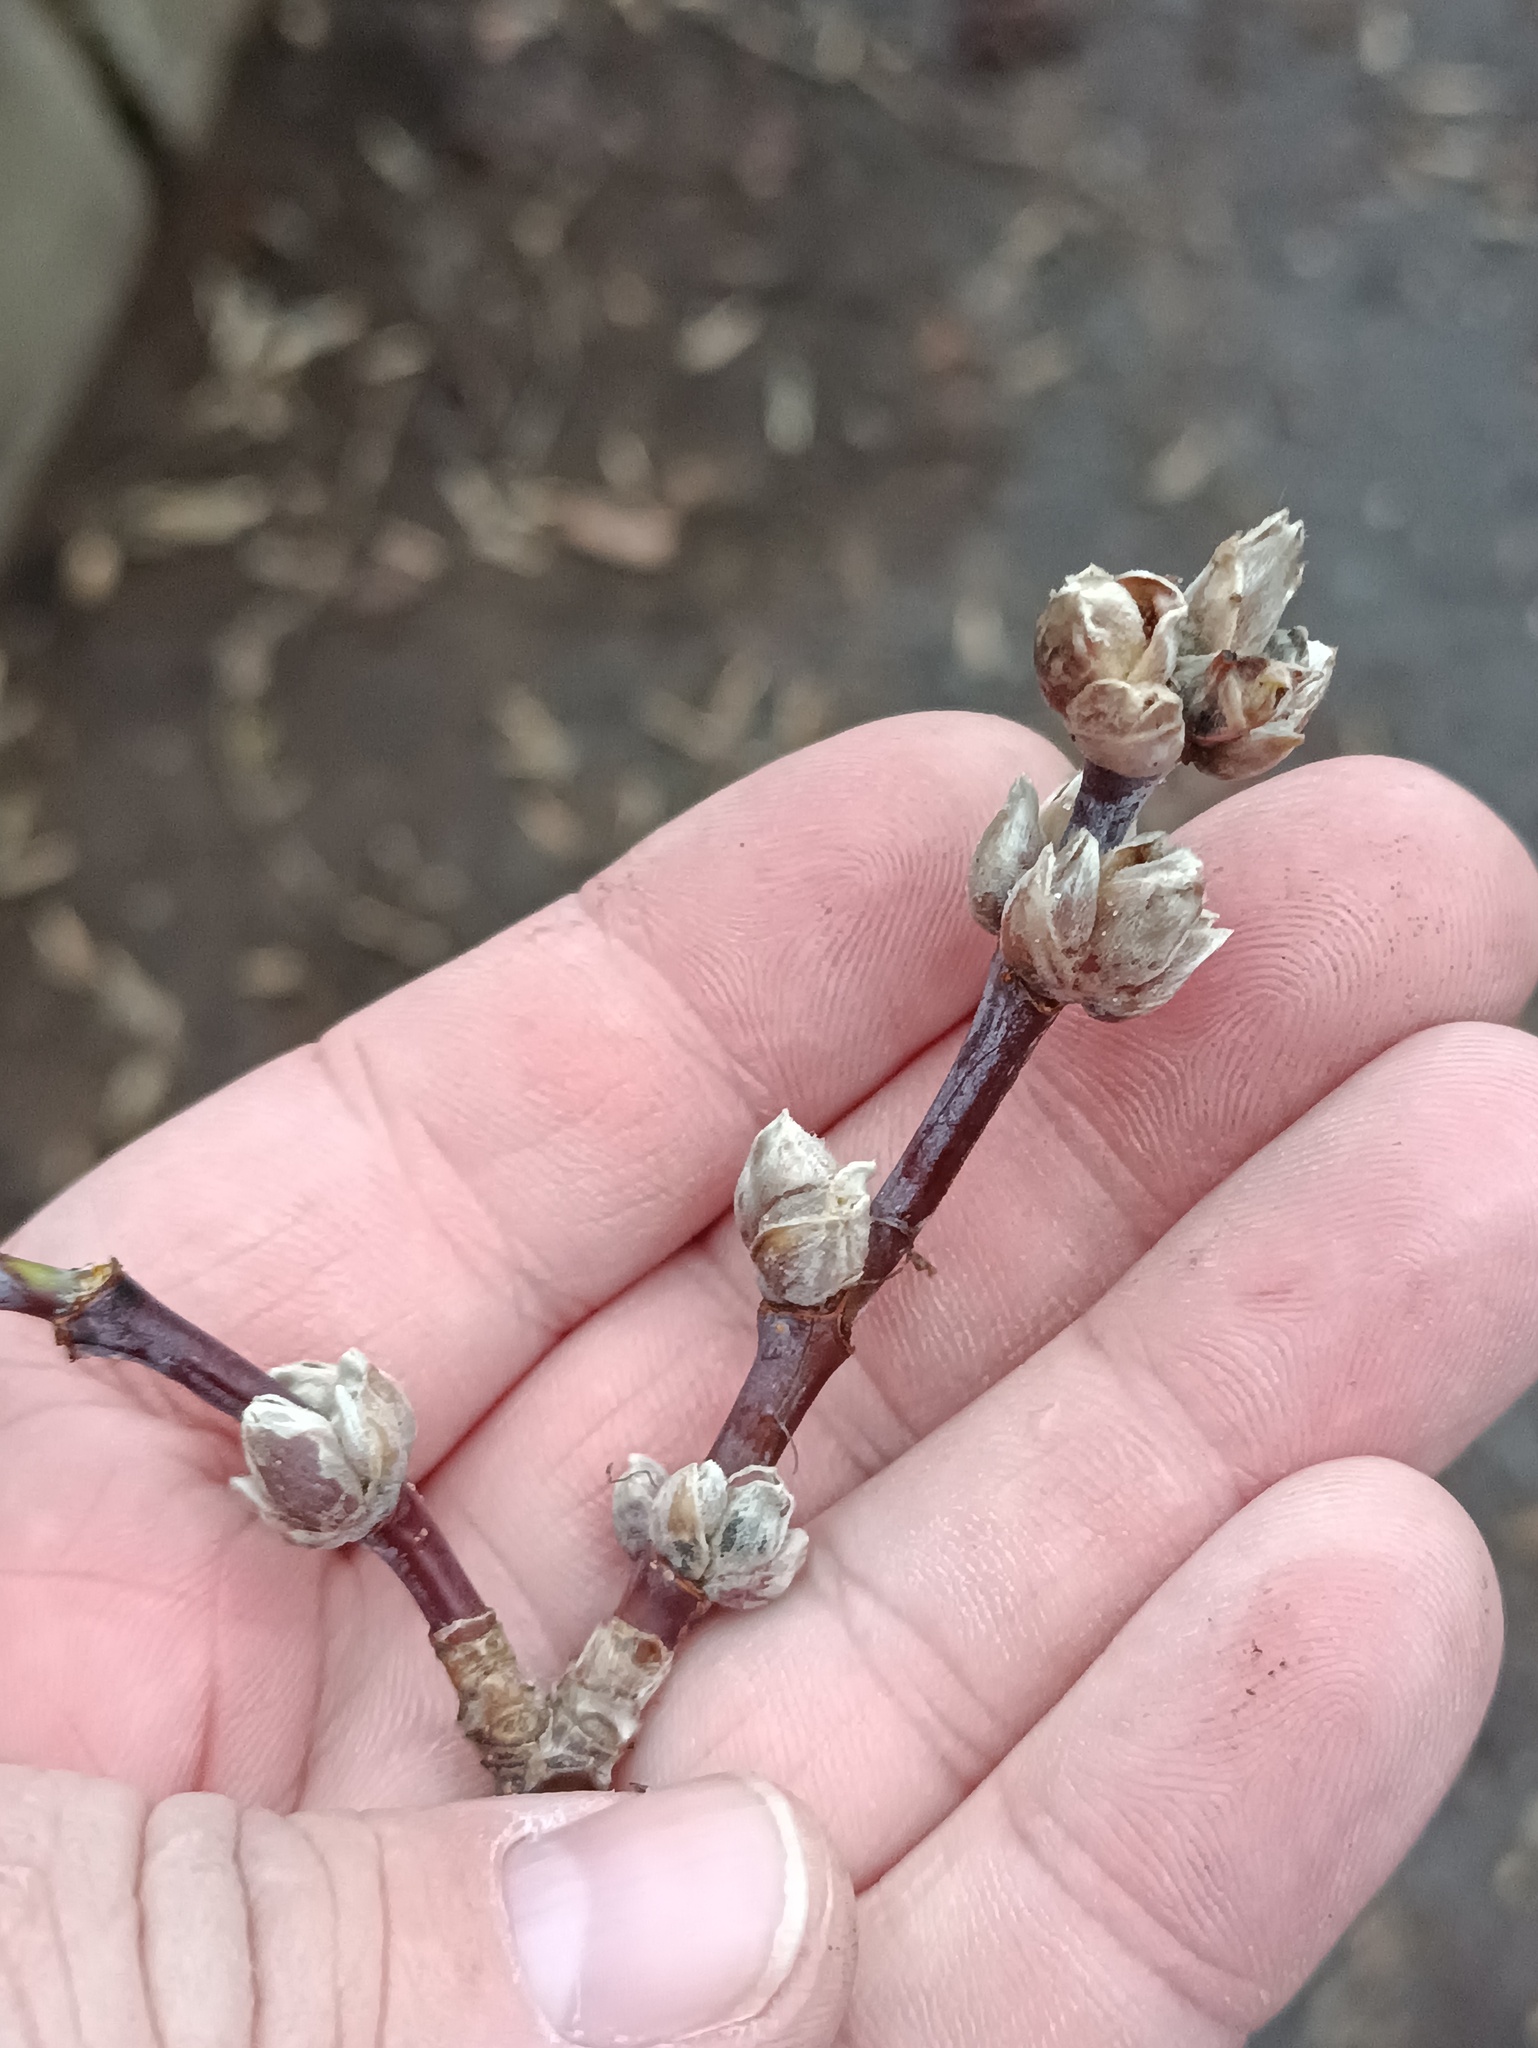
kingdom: Plantae
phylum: Tracheophyta
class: Magnoliopsida
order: Sapindales
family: Sapindaceae
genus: Acer
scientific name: Acer negundo
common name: Ashleaf maple
